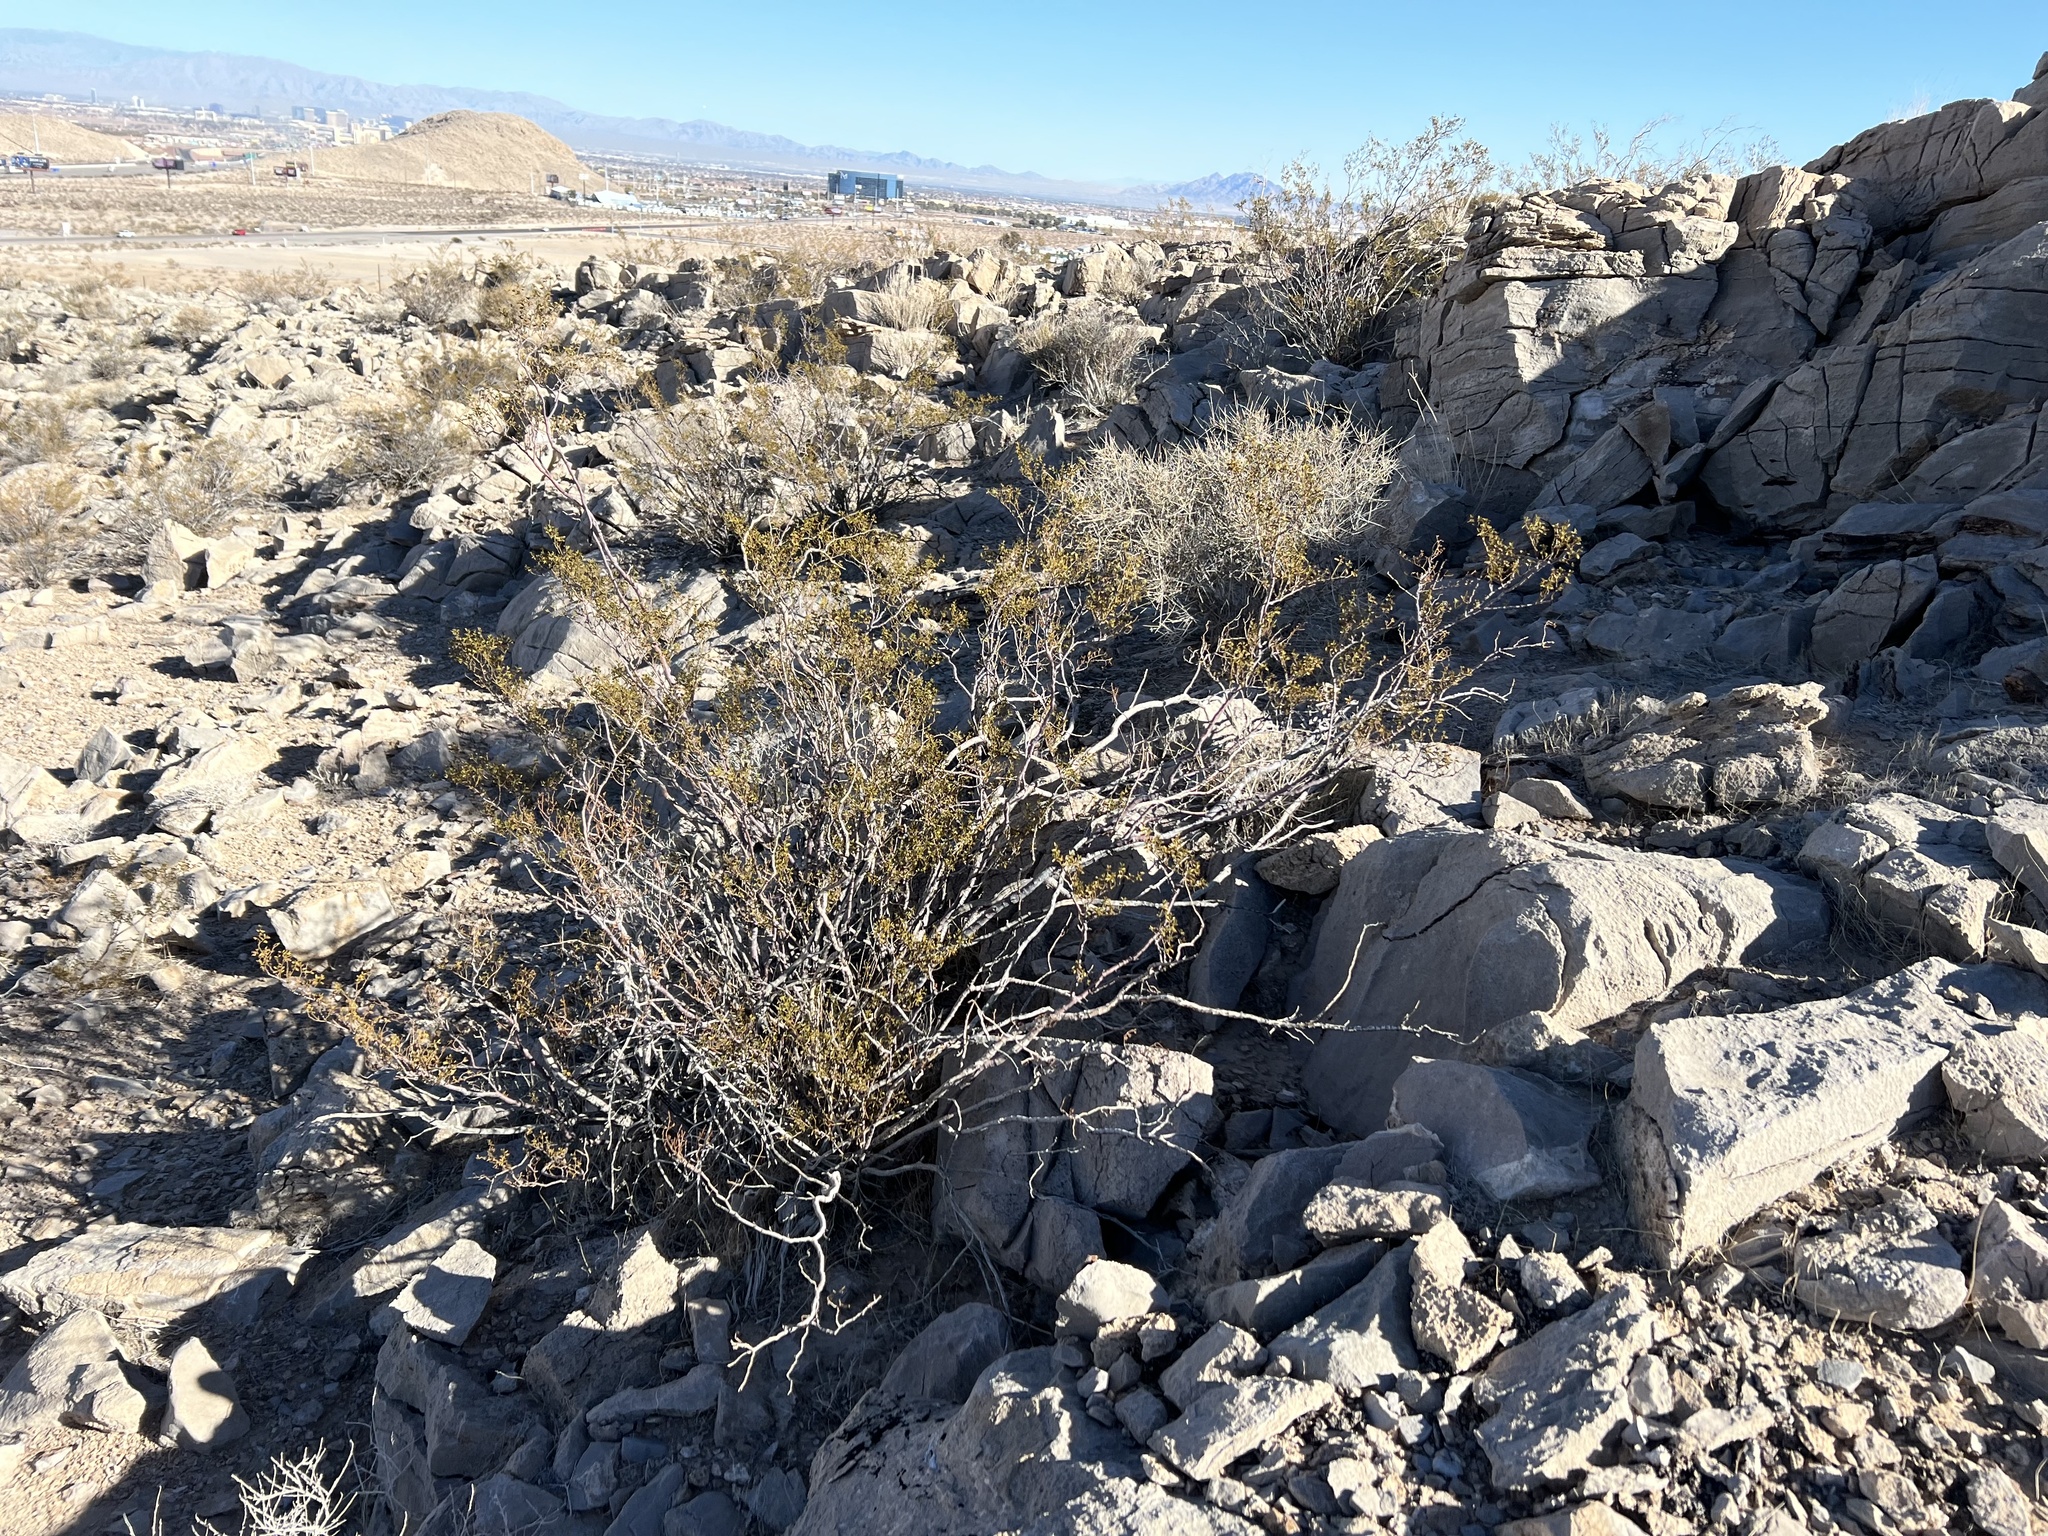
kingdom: Plantae
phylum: Tracheophyta
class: Magnoliopsida
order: Zygophyllales
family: Zygophyllaceae
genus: Larrea
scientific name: Larrea tridentata
